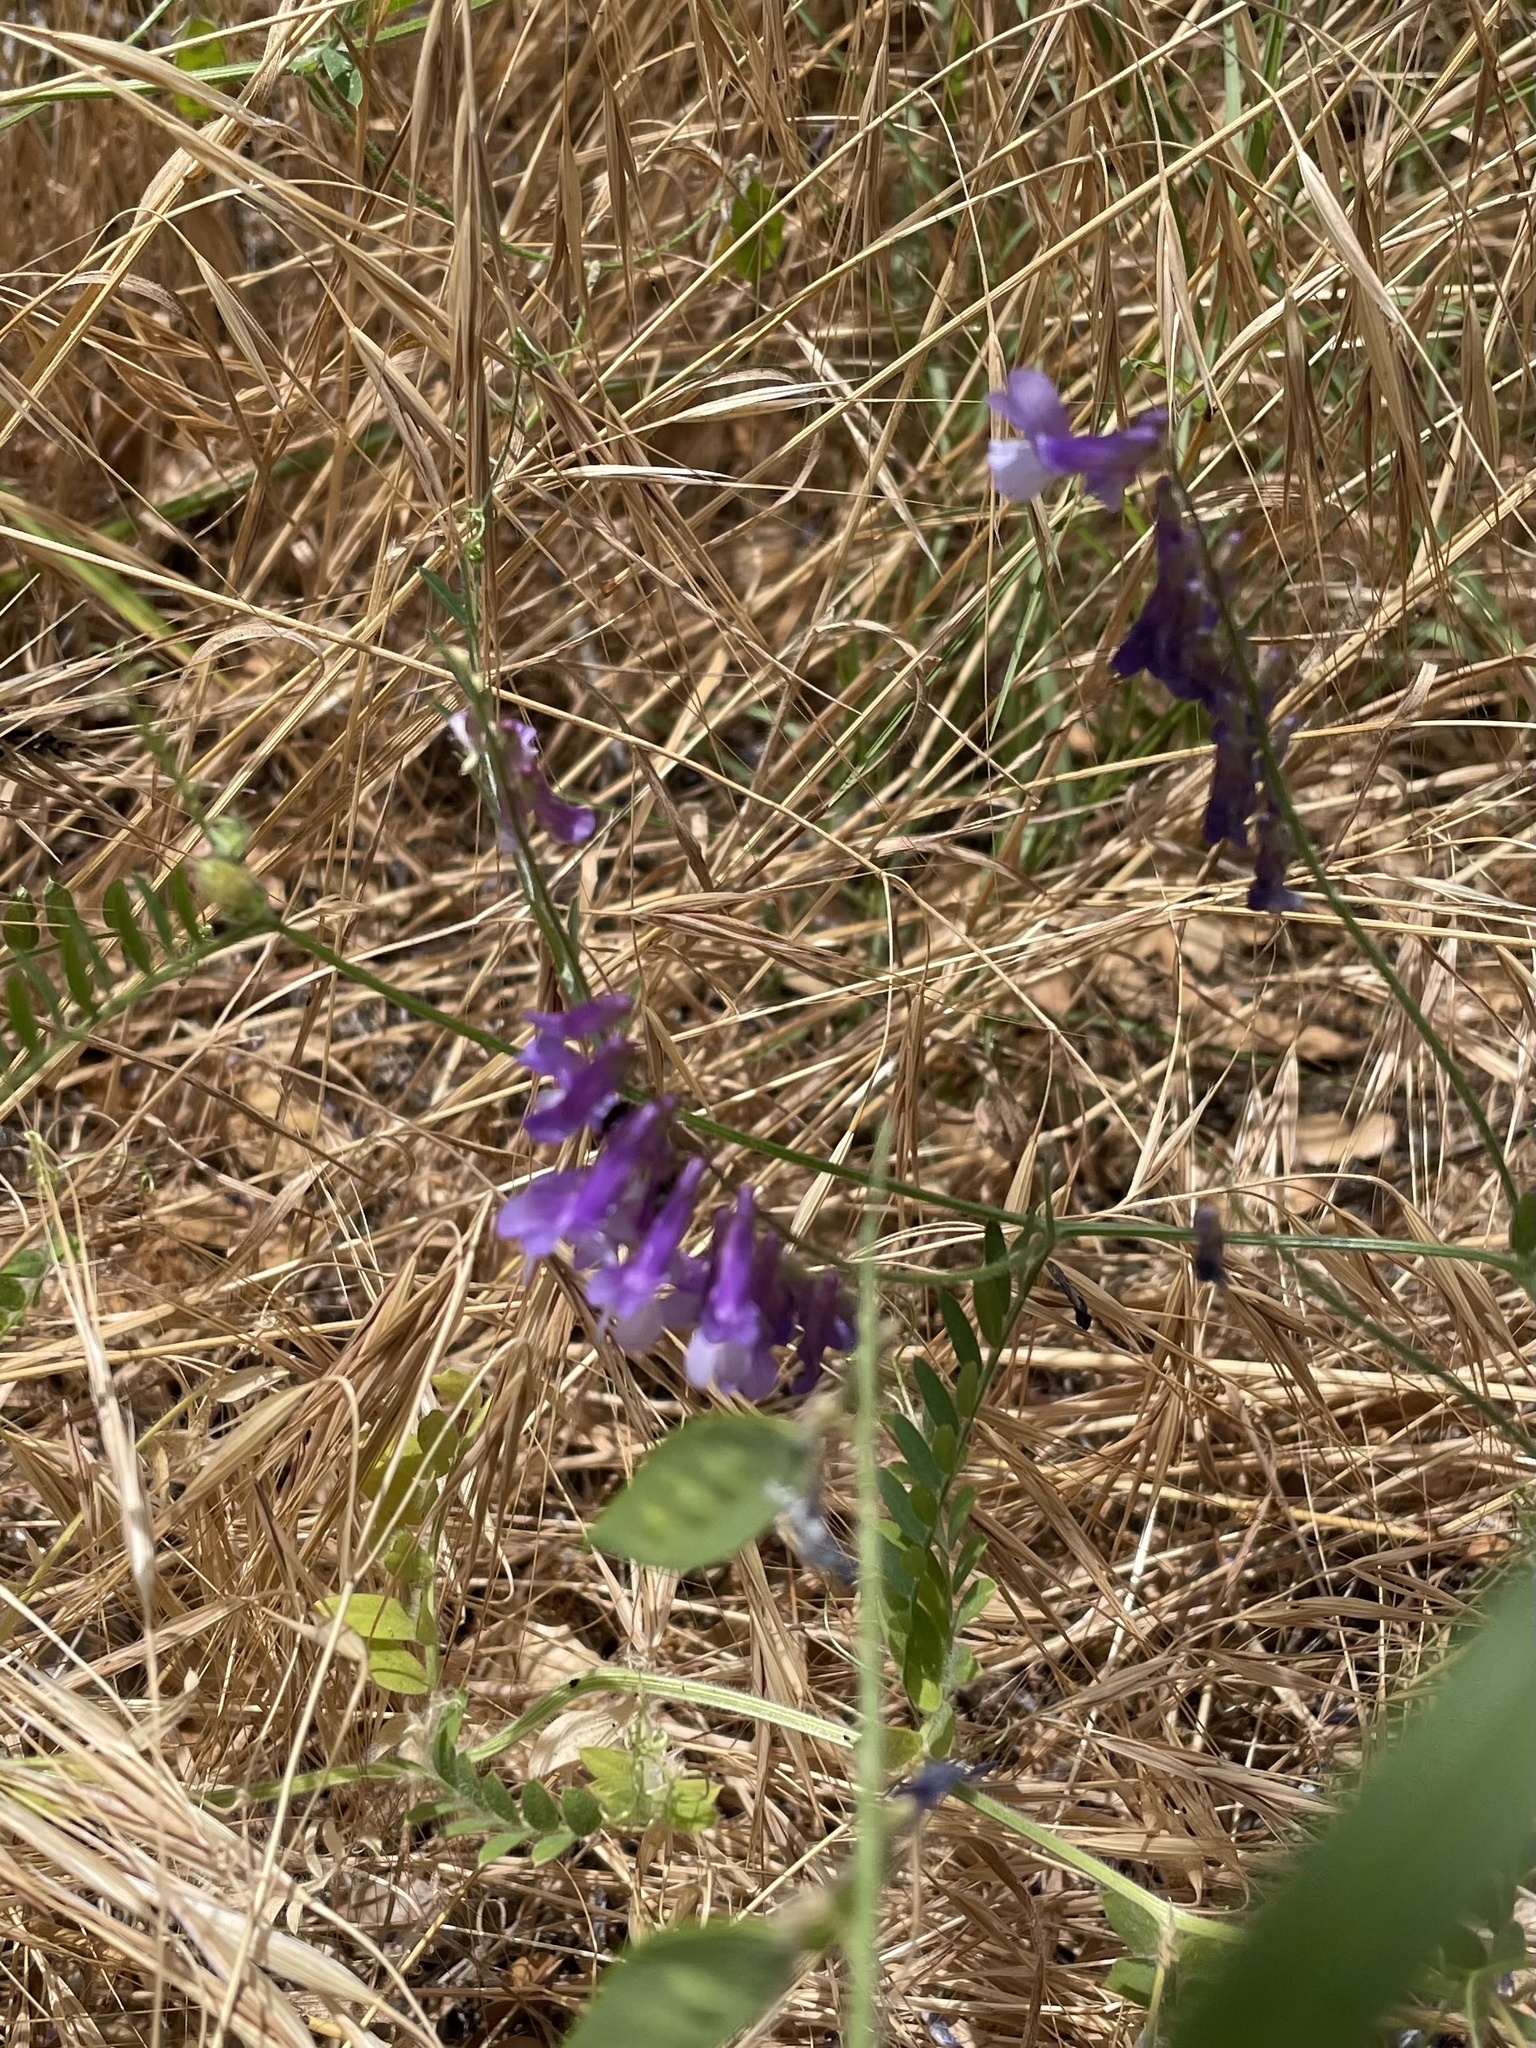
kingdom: Plantae
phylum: Tracheophyta
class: Magnoliopsida
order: Fabales
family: Fabaceae
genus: Vicia
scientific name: Vicia villosa
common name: Fodder vetch
